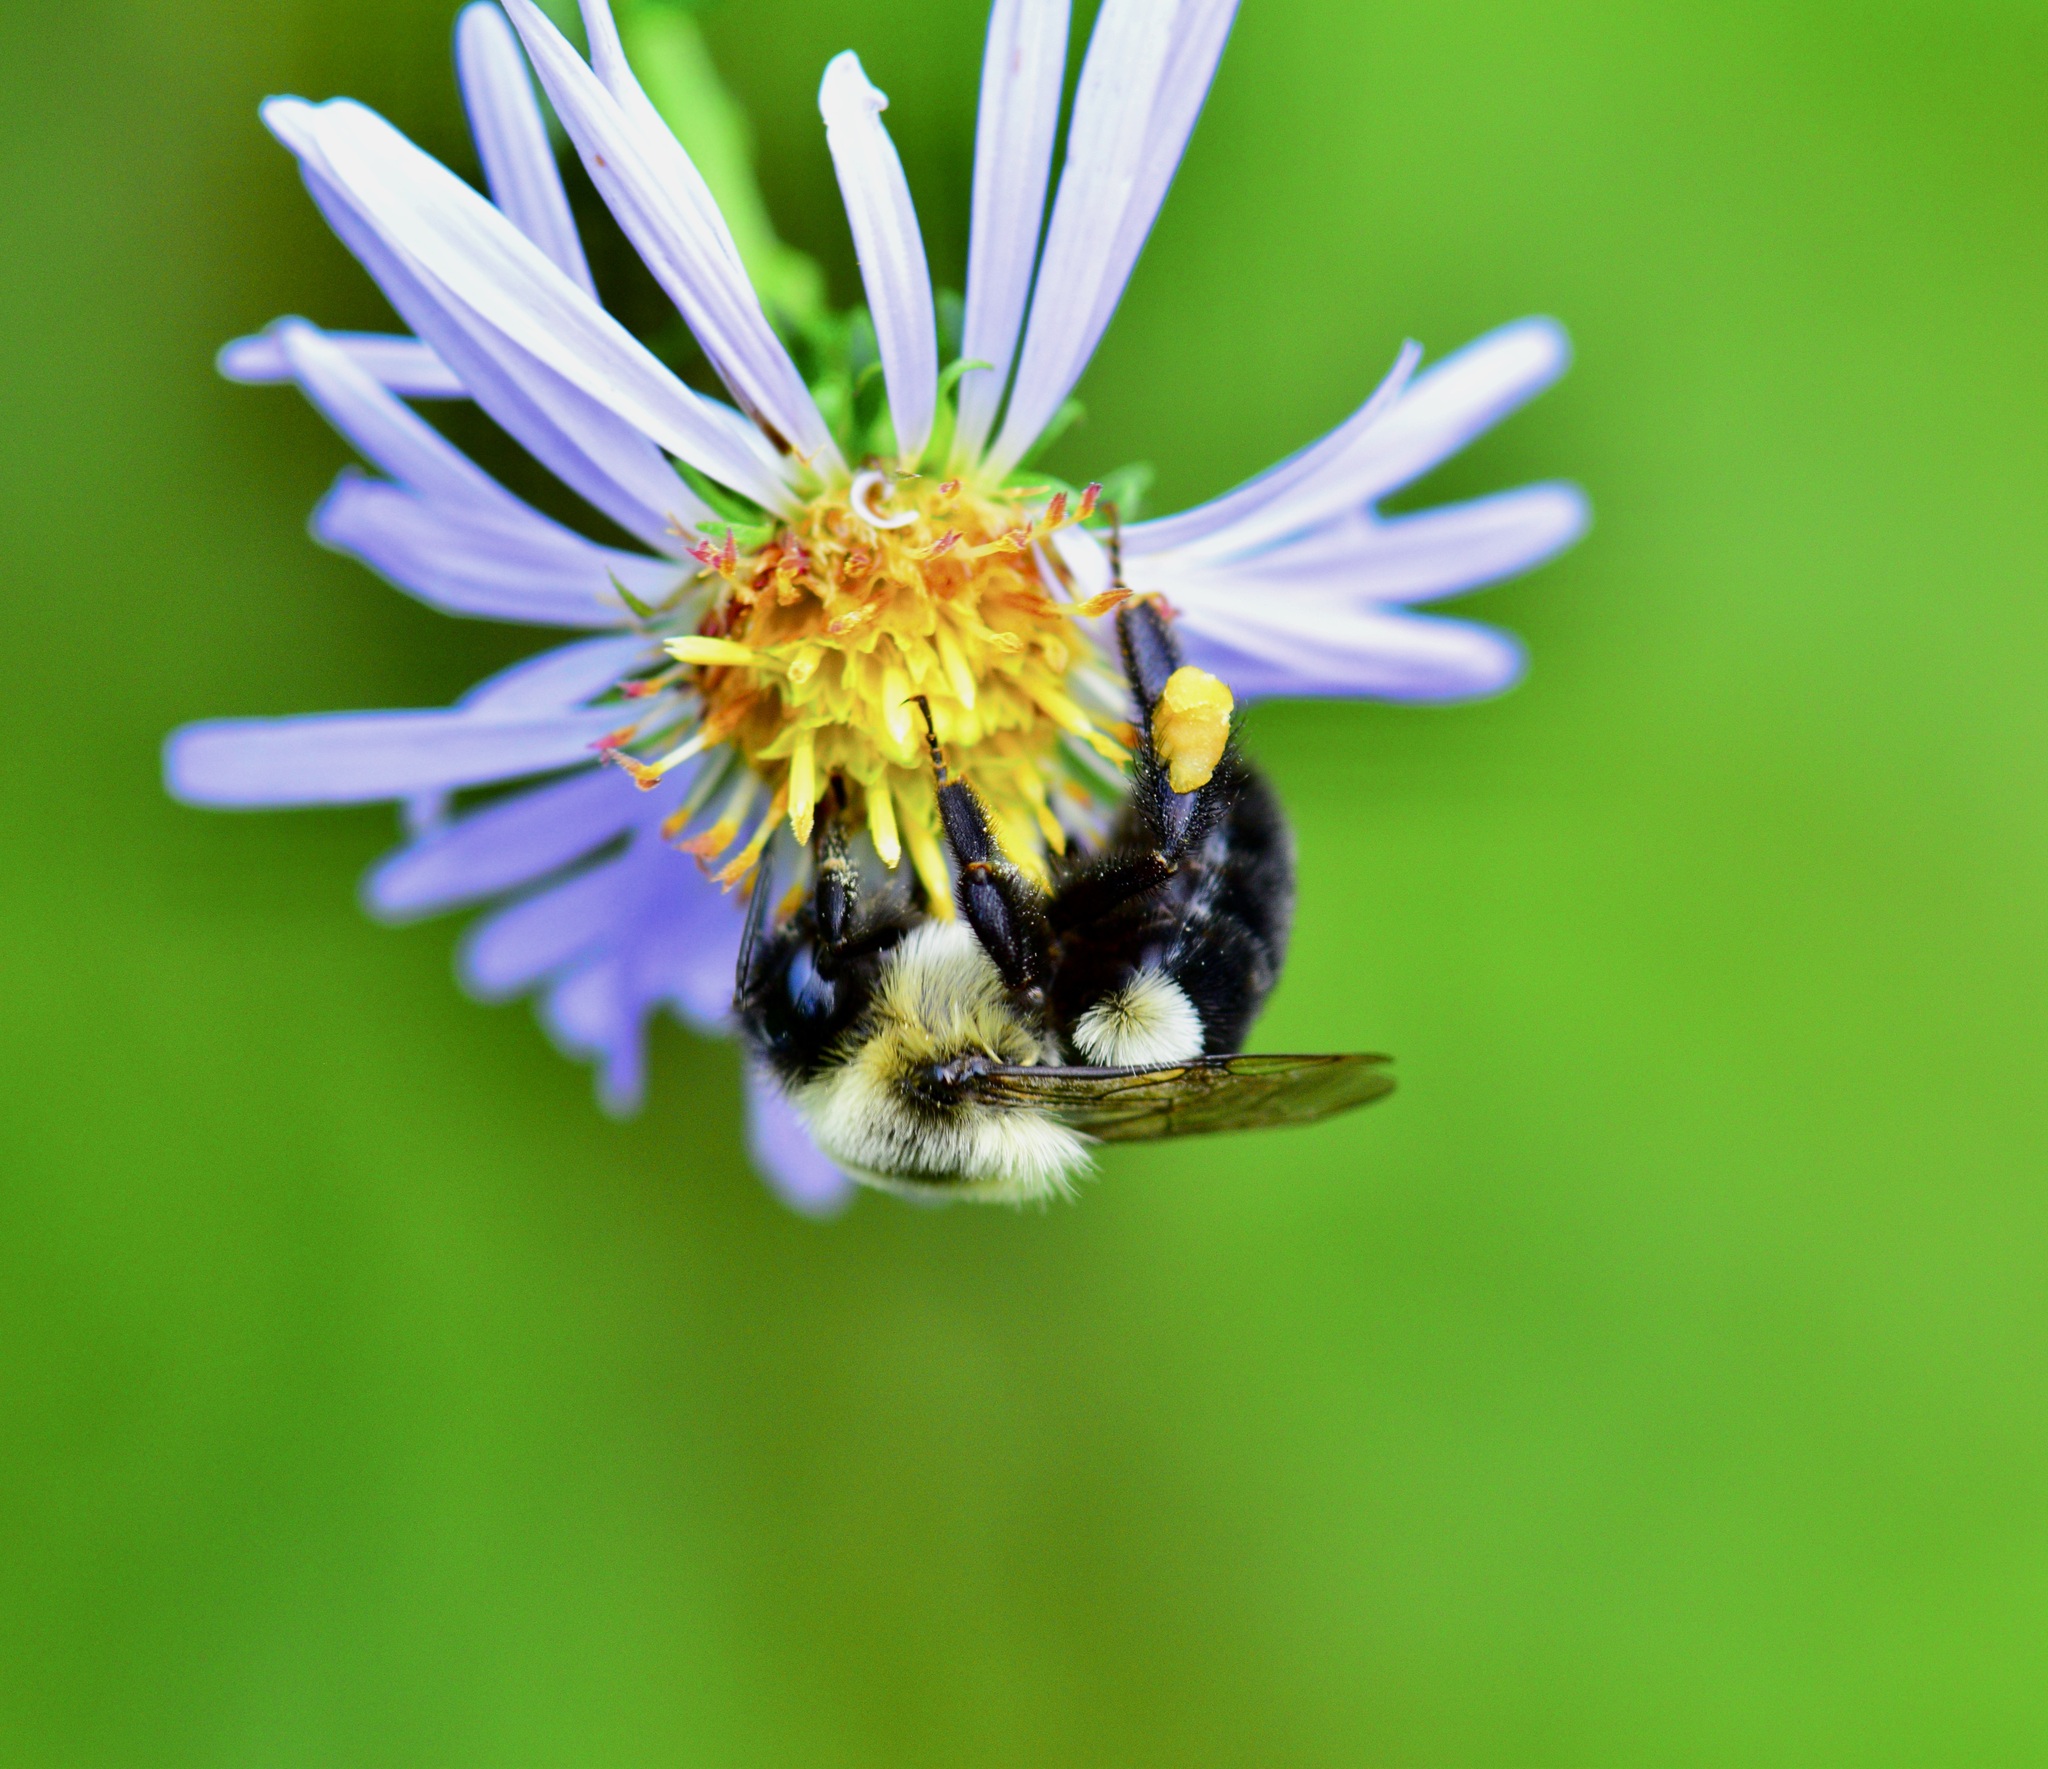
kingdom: Animalia
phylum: Arthropoda
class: Insecta
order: Hymenoptera
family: Apidae
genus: Bombus
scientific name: Bombus impatiens
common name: Common eastern bumble bee
